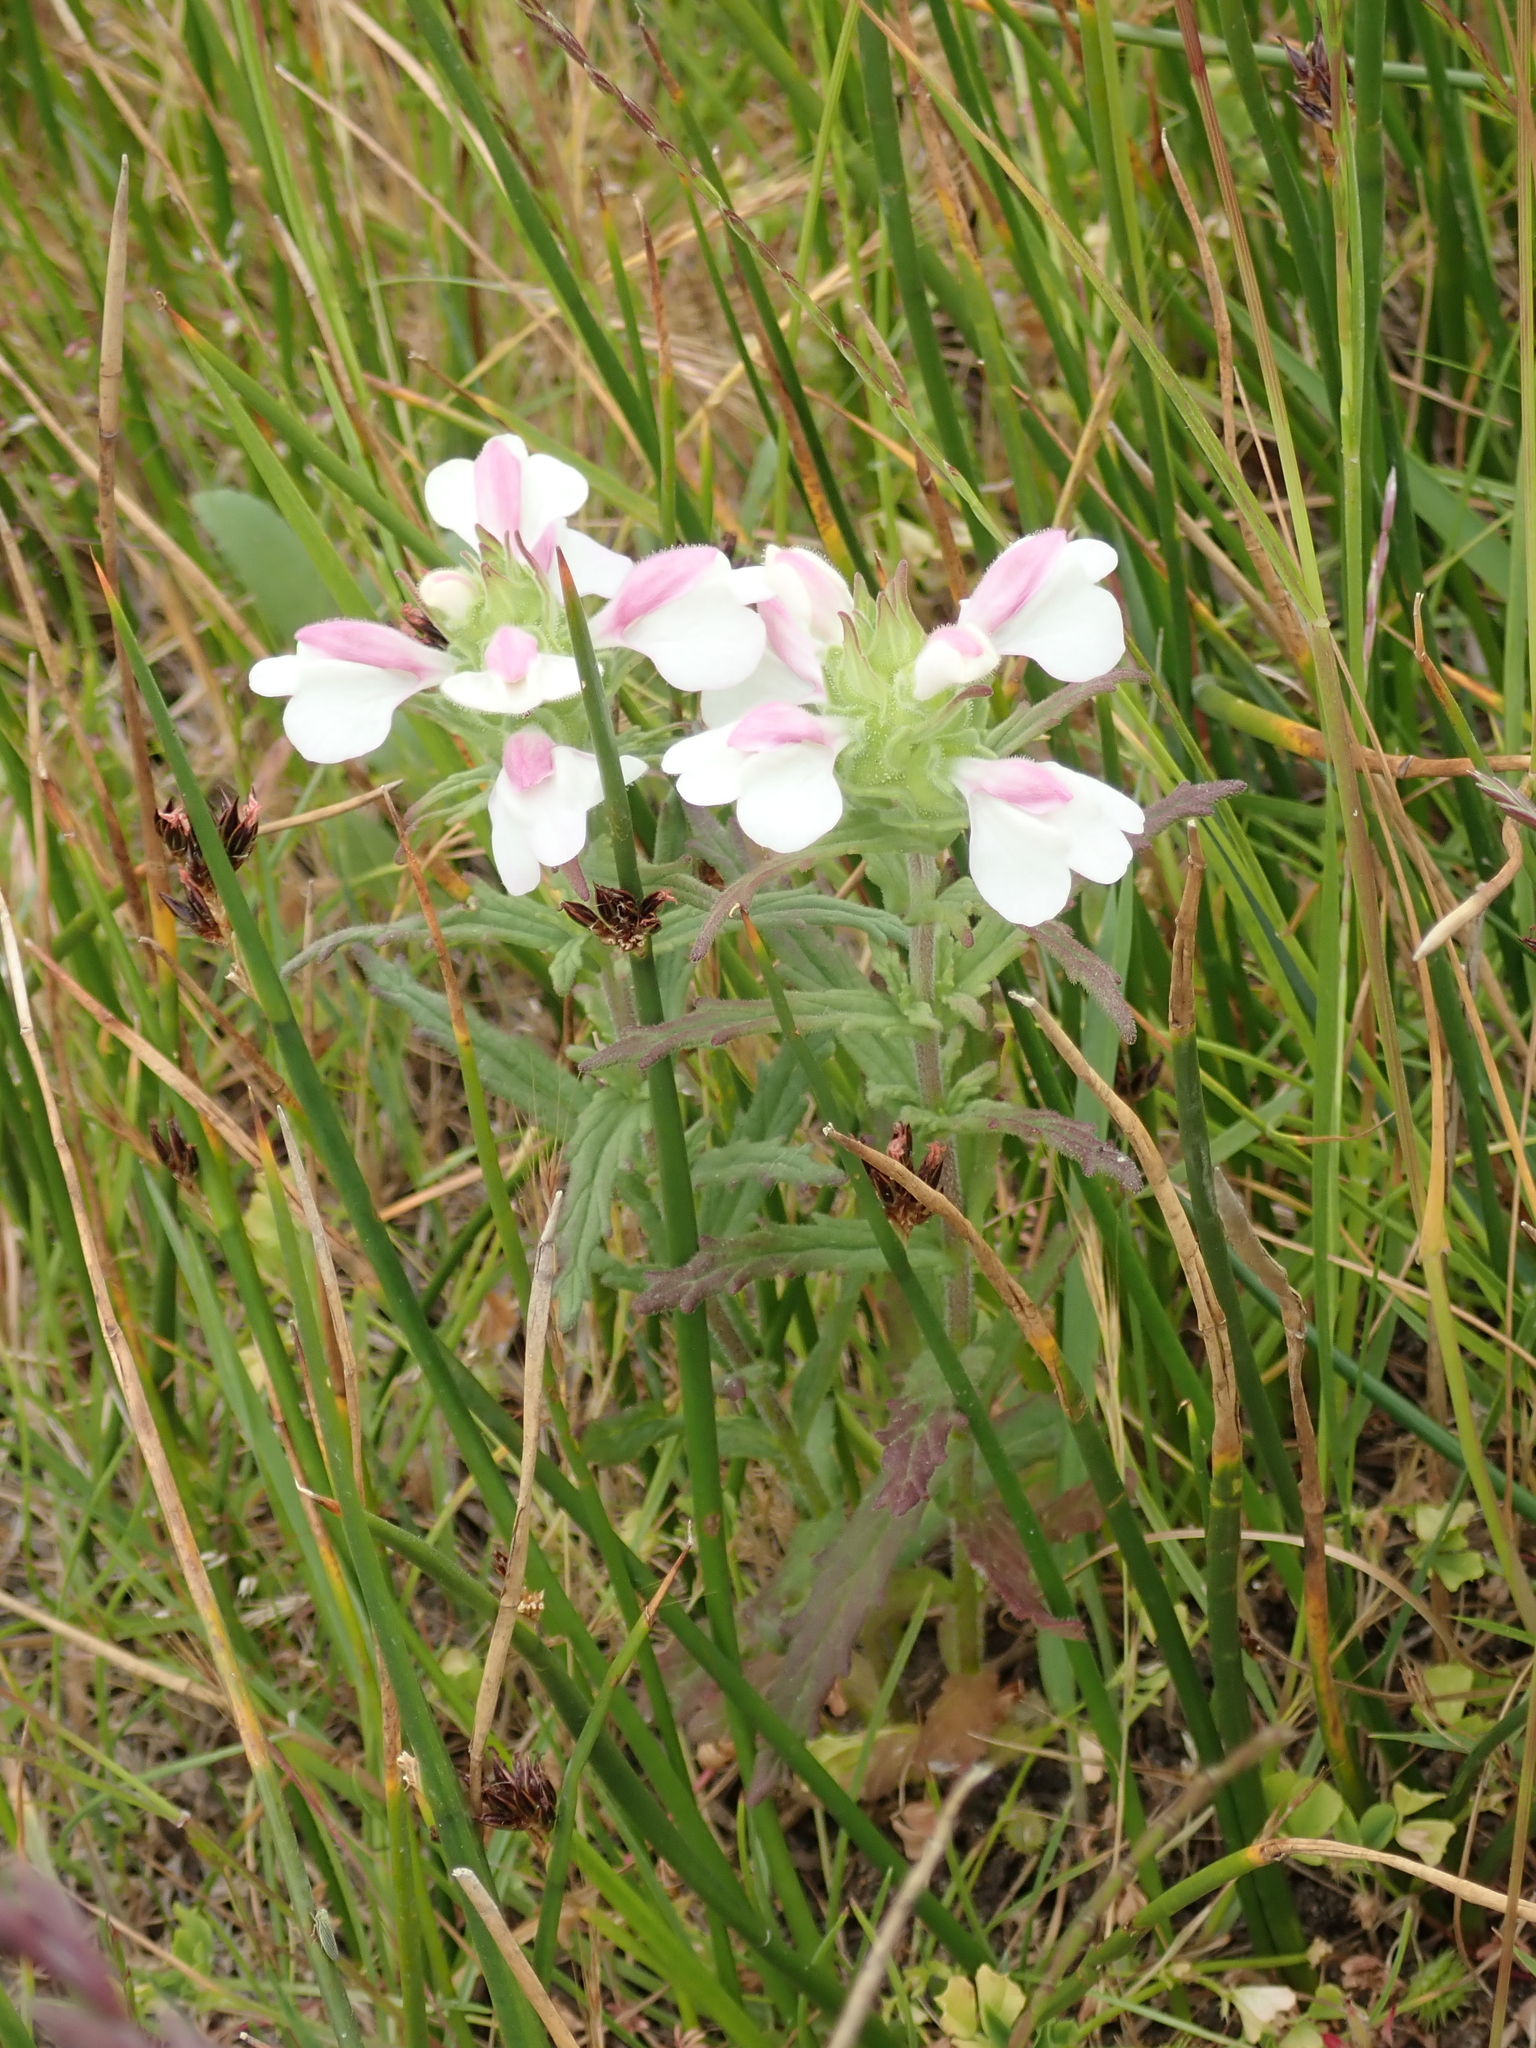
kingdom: Plantae
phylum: Tracheophyta
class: Magnoliopsida
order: Lamiales
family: Orobanchaceae
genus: Bellardia
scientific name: Bellardia trixago
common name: Mediterranean lineseed
